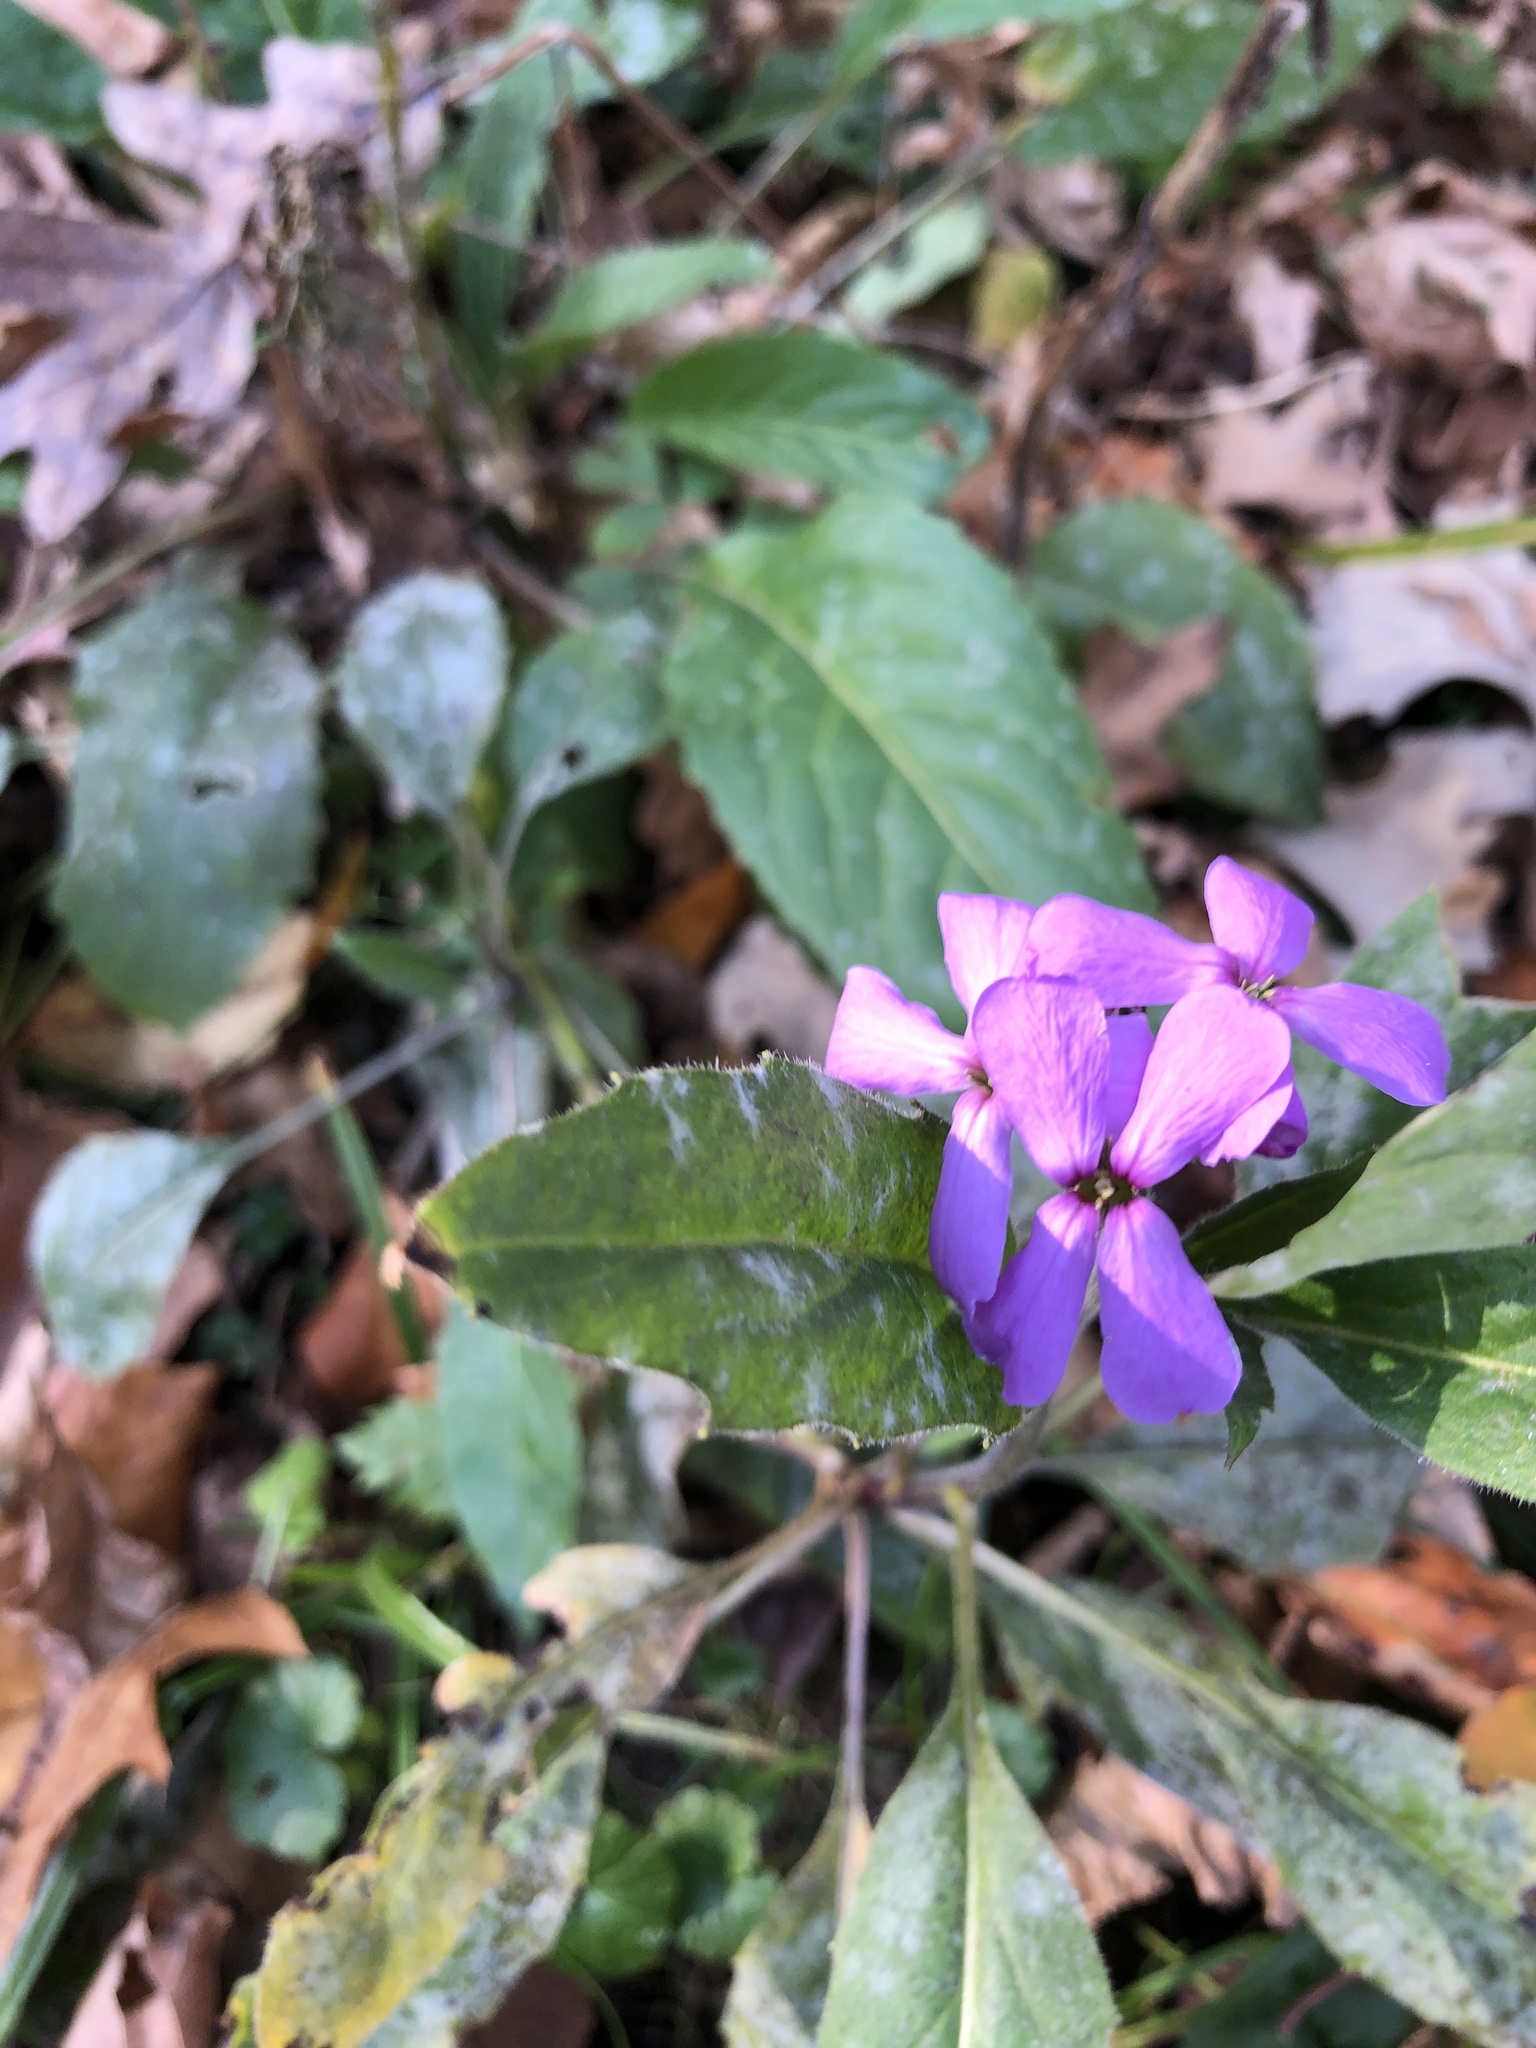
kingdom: Plantae
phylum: Tracheophyta
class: Magnoliopsida
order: Brassicales
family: Brassicaceae
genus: Hesperis
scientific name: Hesperis matronalis
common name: Dame's-violet
